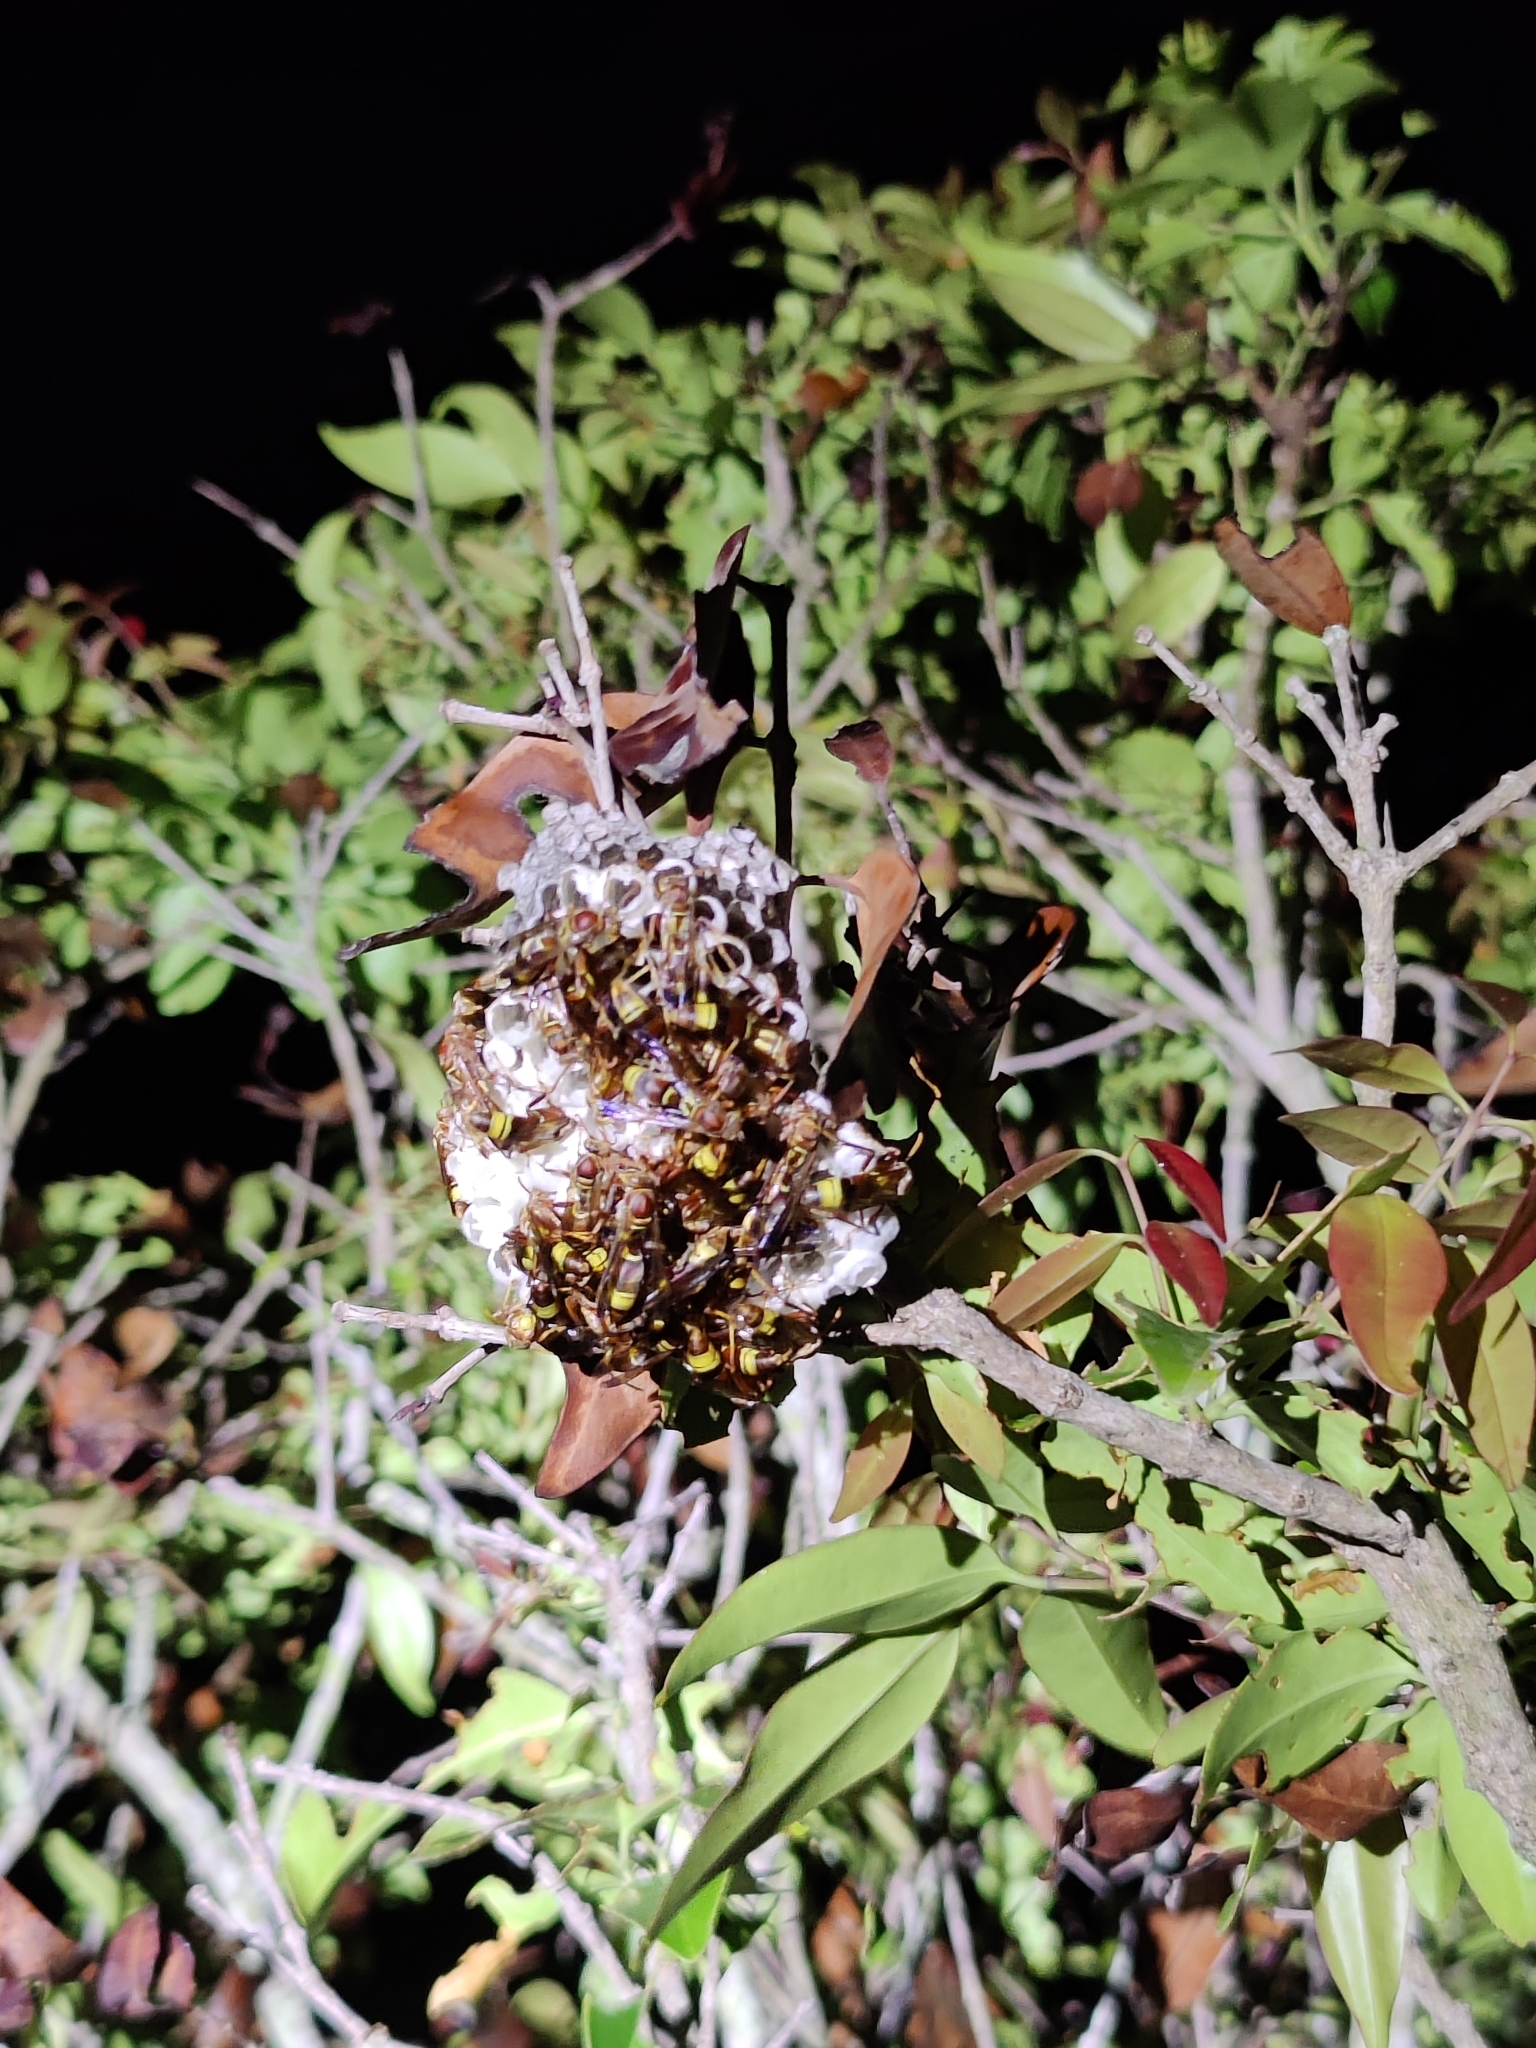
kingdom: Animalia
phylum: Arthropoda
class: Insecta
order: Hymenoptera
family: Eumenidae
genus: Polistes
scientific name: Polistes stigma
